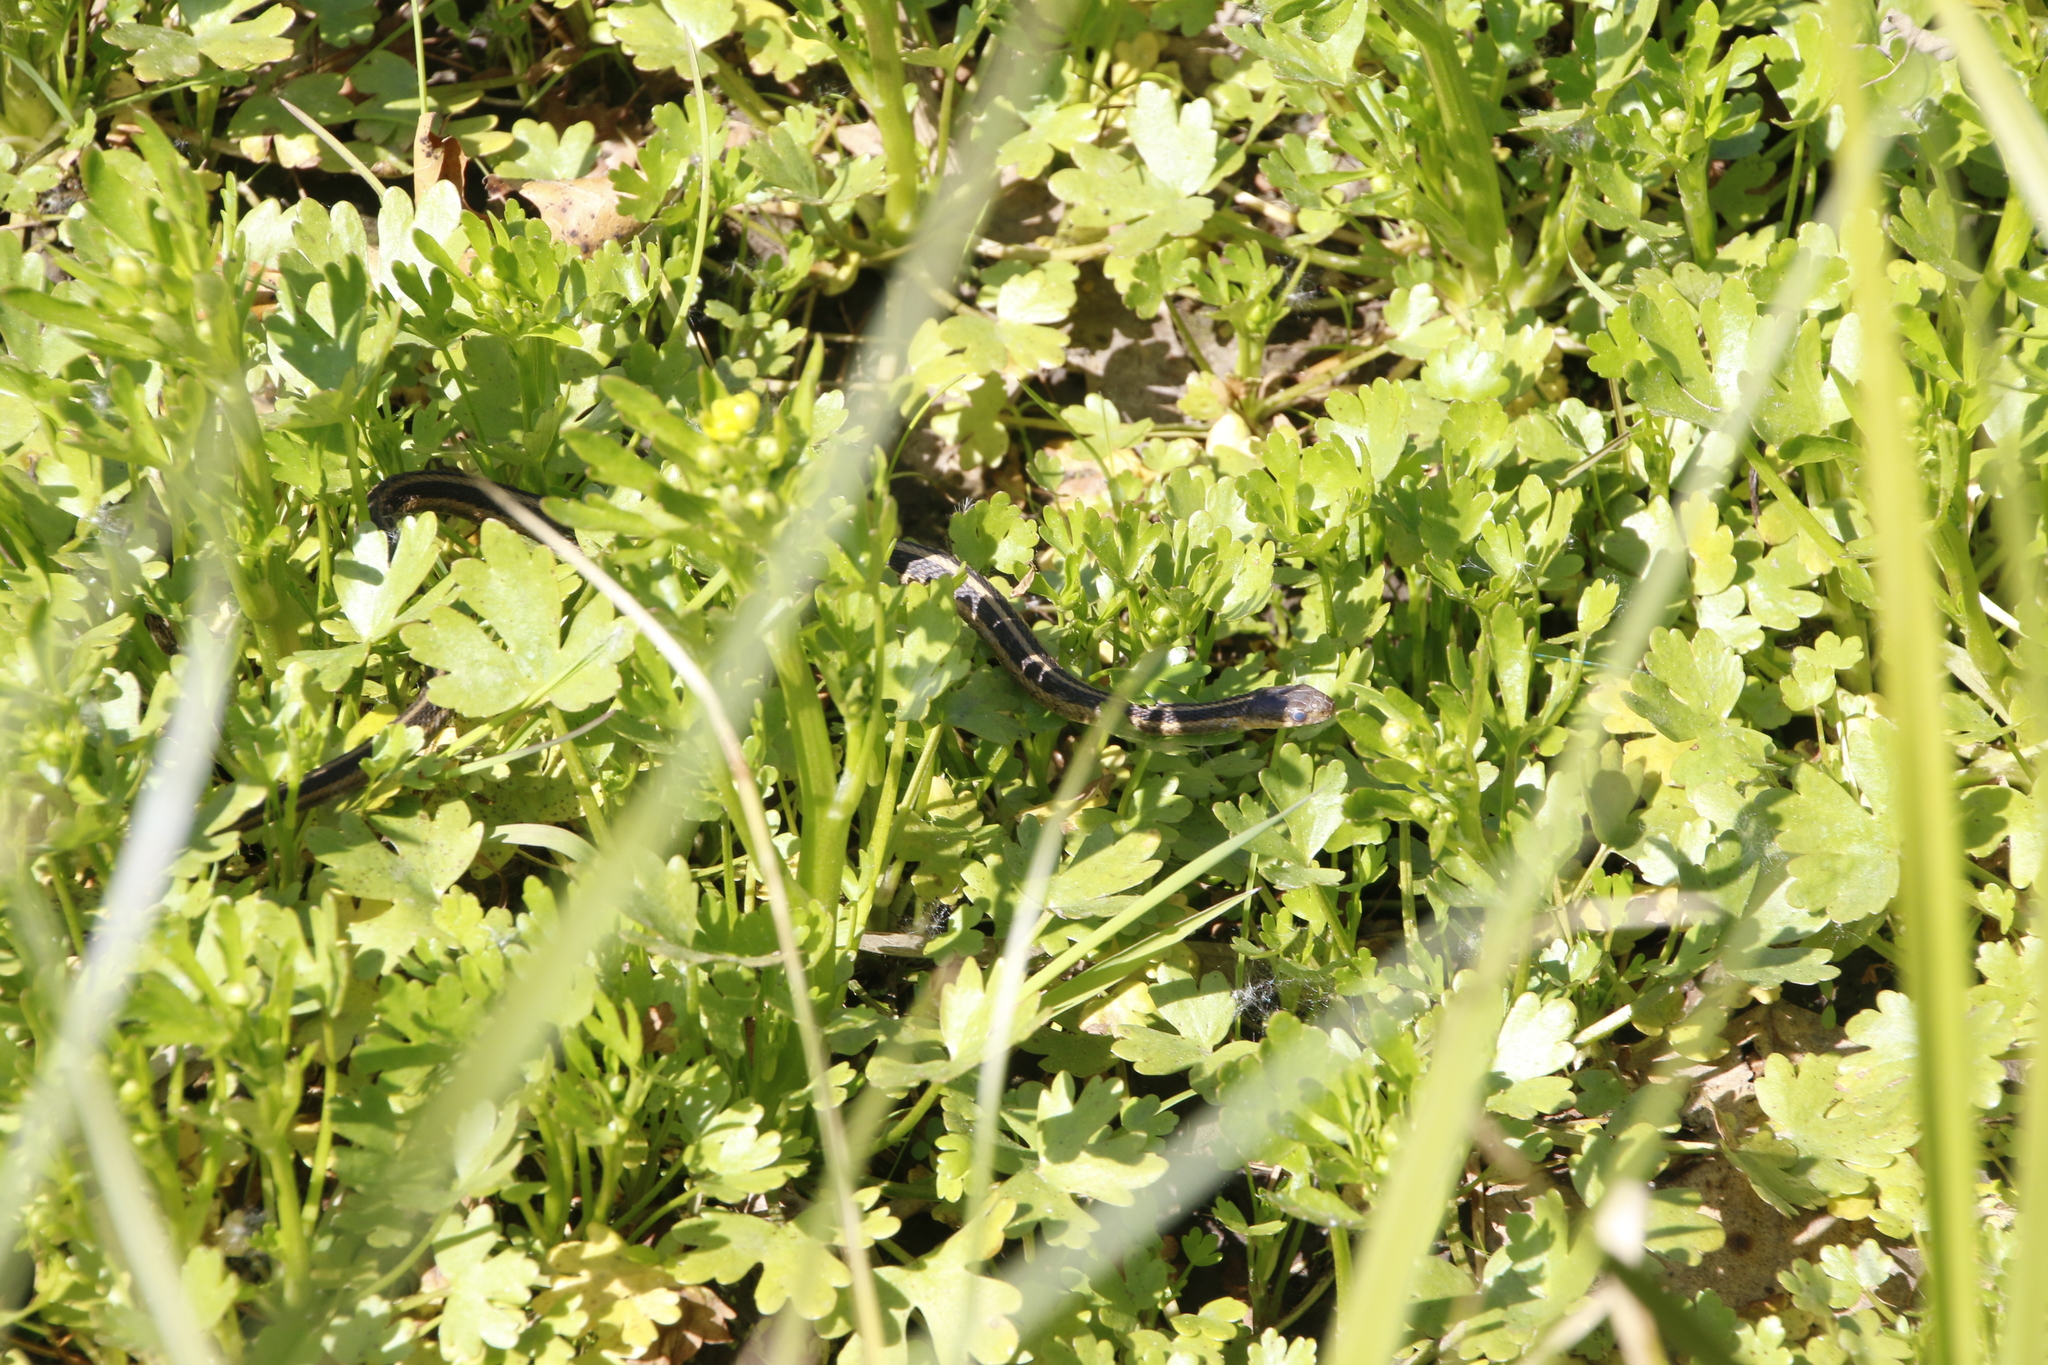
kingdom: Animalia
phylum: Chordata
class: Squamata
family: Colubridae
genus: Thamnophis
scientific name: Thamnophis sirtalis
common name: Common garter snake
